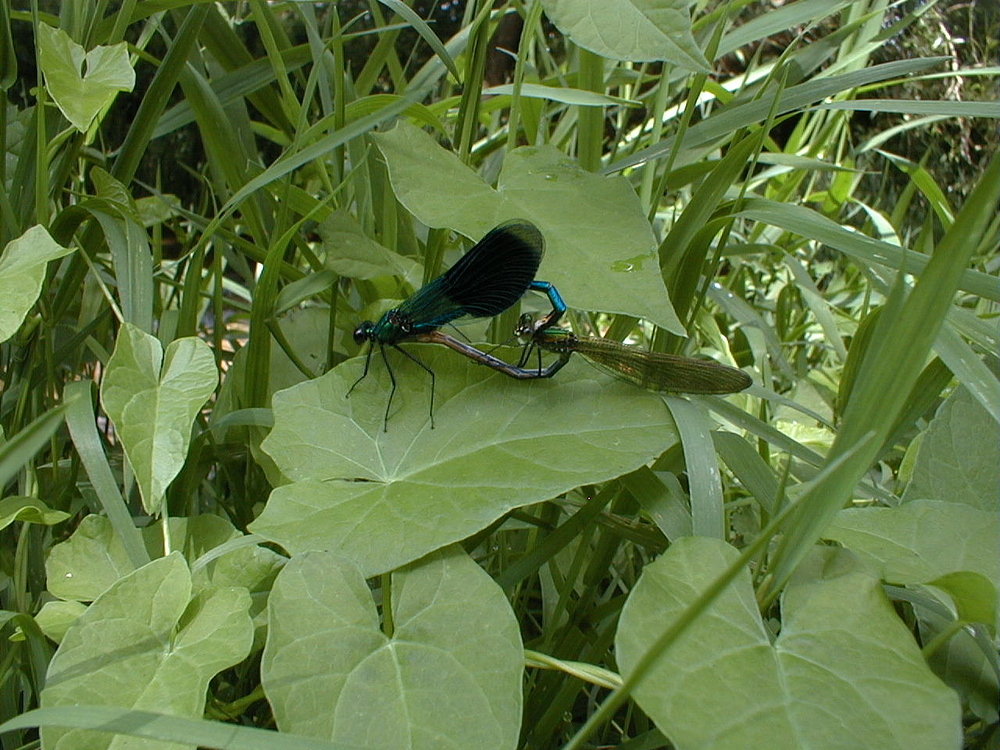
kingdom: Animalia
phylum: Arthropoda
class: Insecta
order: Odonata
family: Calopterygidae
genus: Calopteryx
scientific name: Calopteryx splendens
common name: Banded demoiselle
